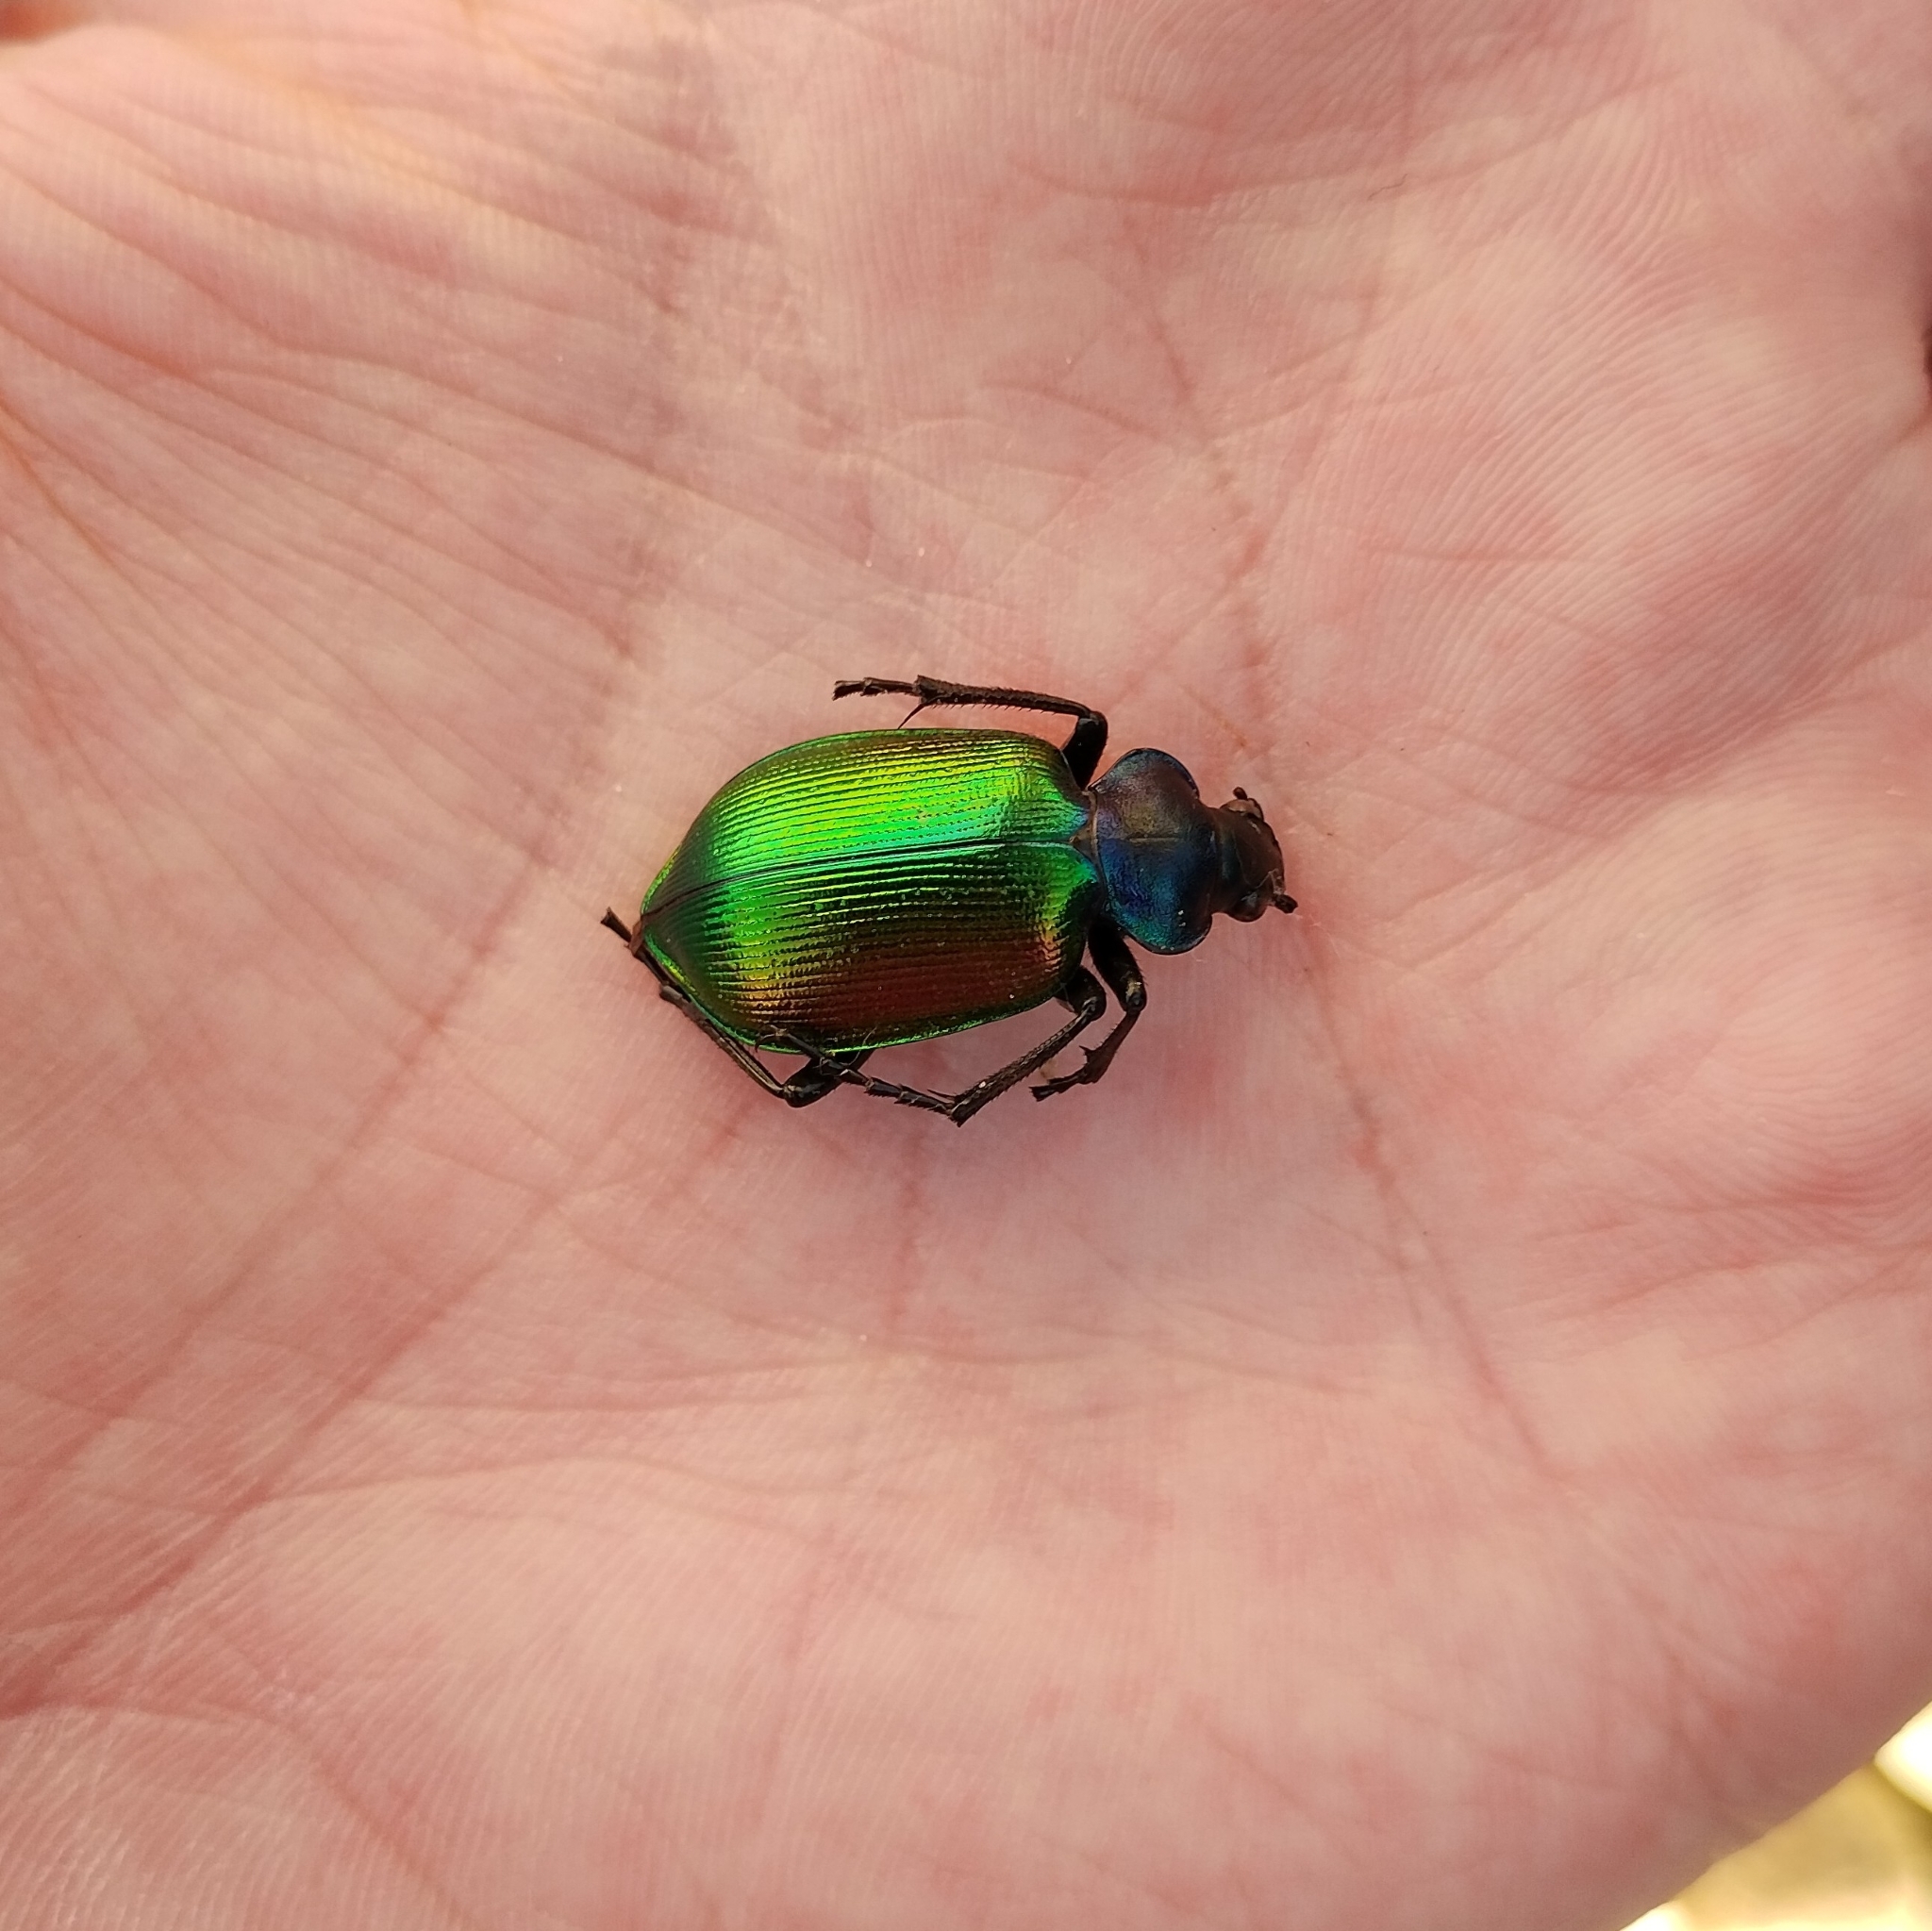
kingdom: Animalia
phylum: Arthropoda
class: Insecta
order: Coleoptera
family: Carabidae
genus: Calosoma
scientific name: Calosoma sycophanta
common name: Forest caterpillar hunter
